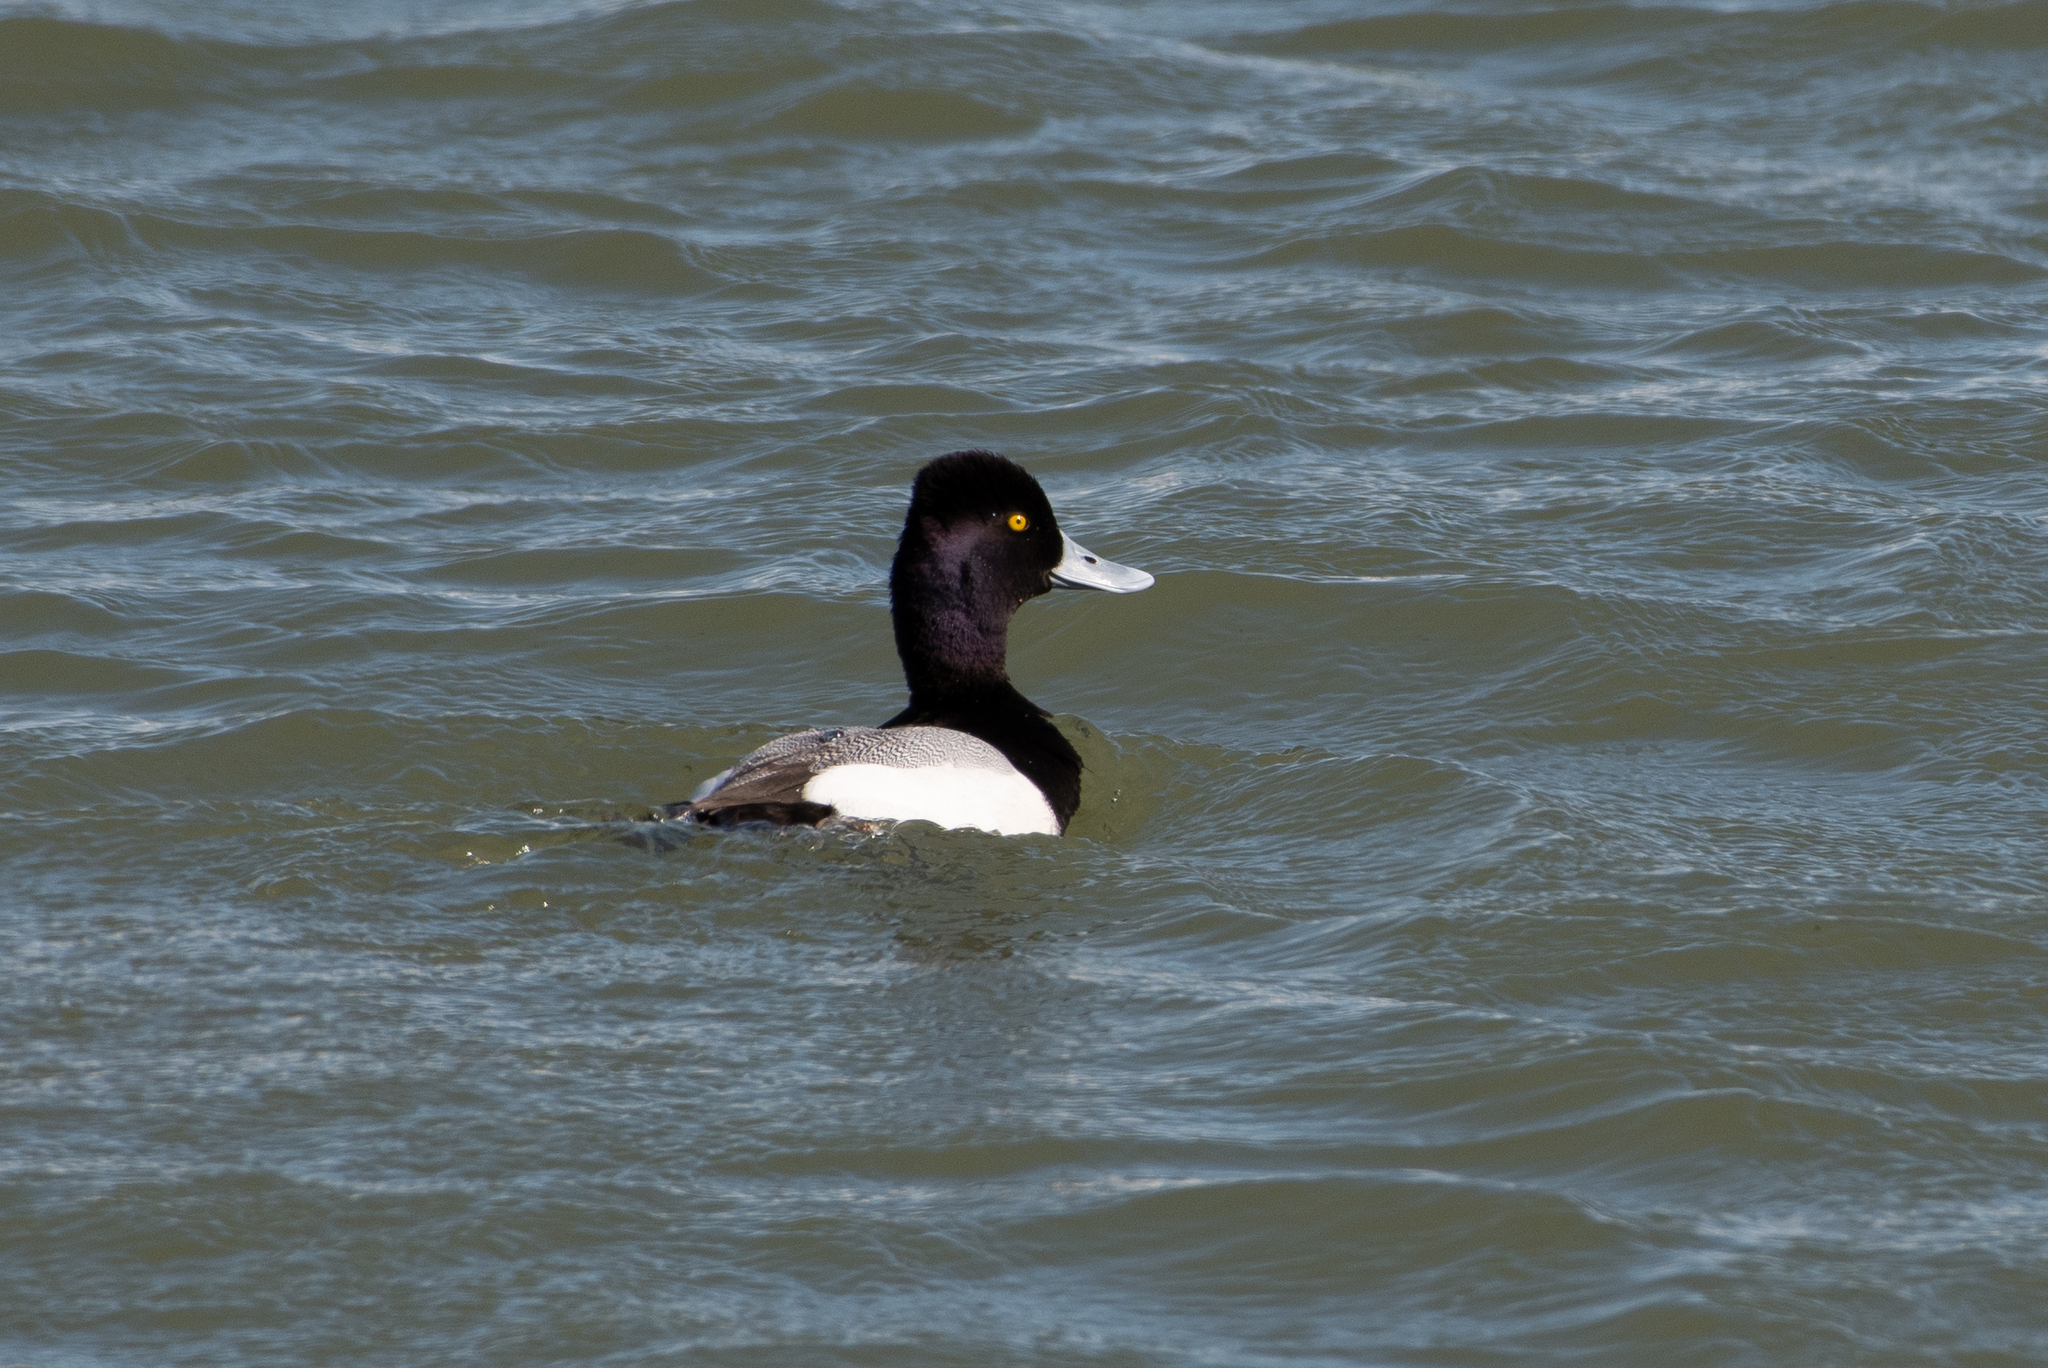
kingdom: Animalia
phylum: Chordata
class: Aves
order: Anseriformes
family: Anatidae
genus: Aythya
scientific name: Aythya affinis
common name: Lesser scaup
